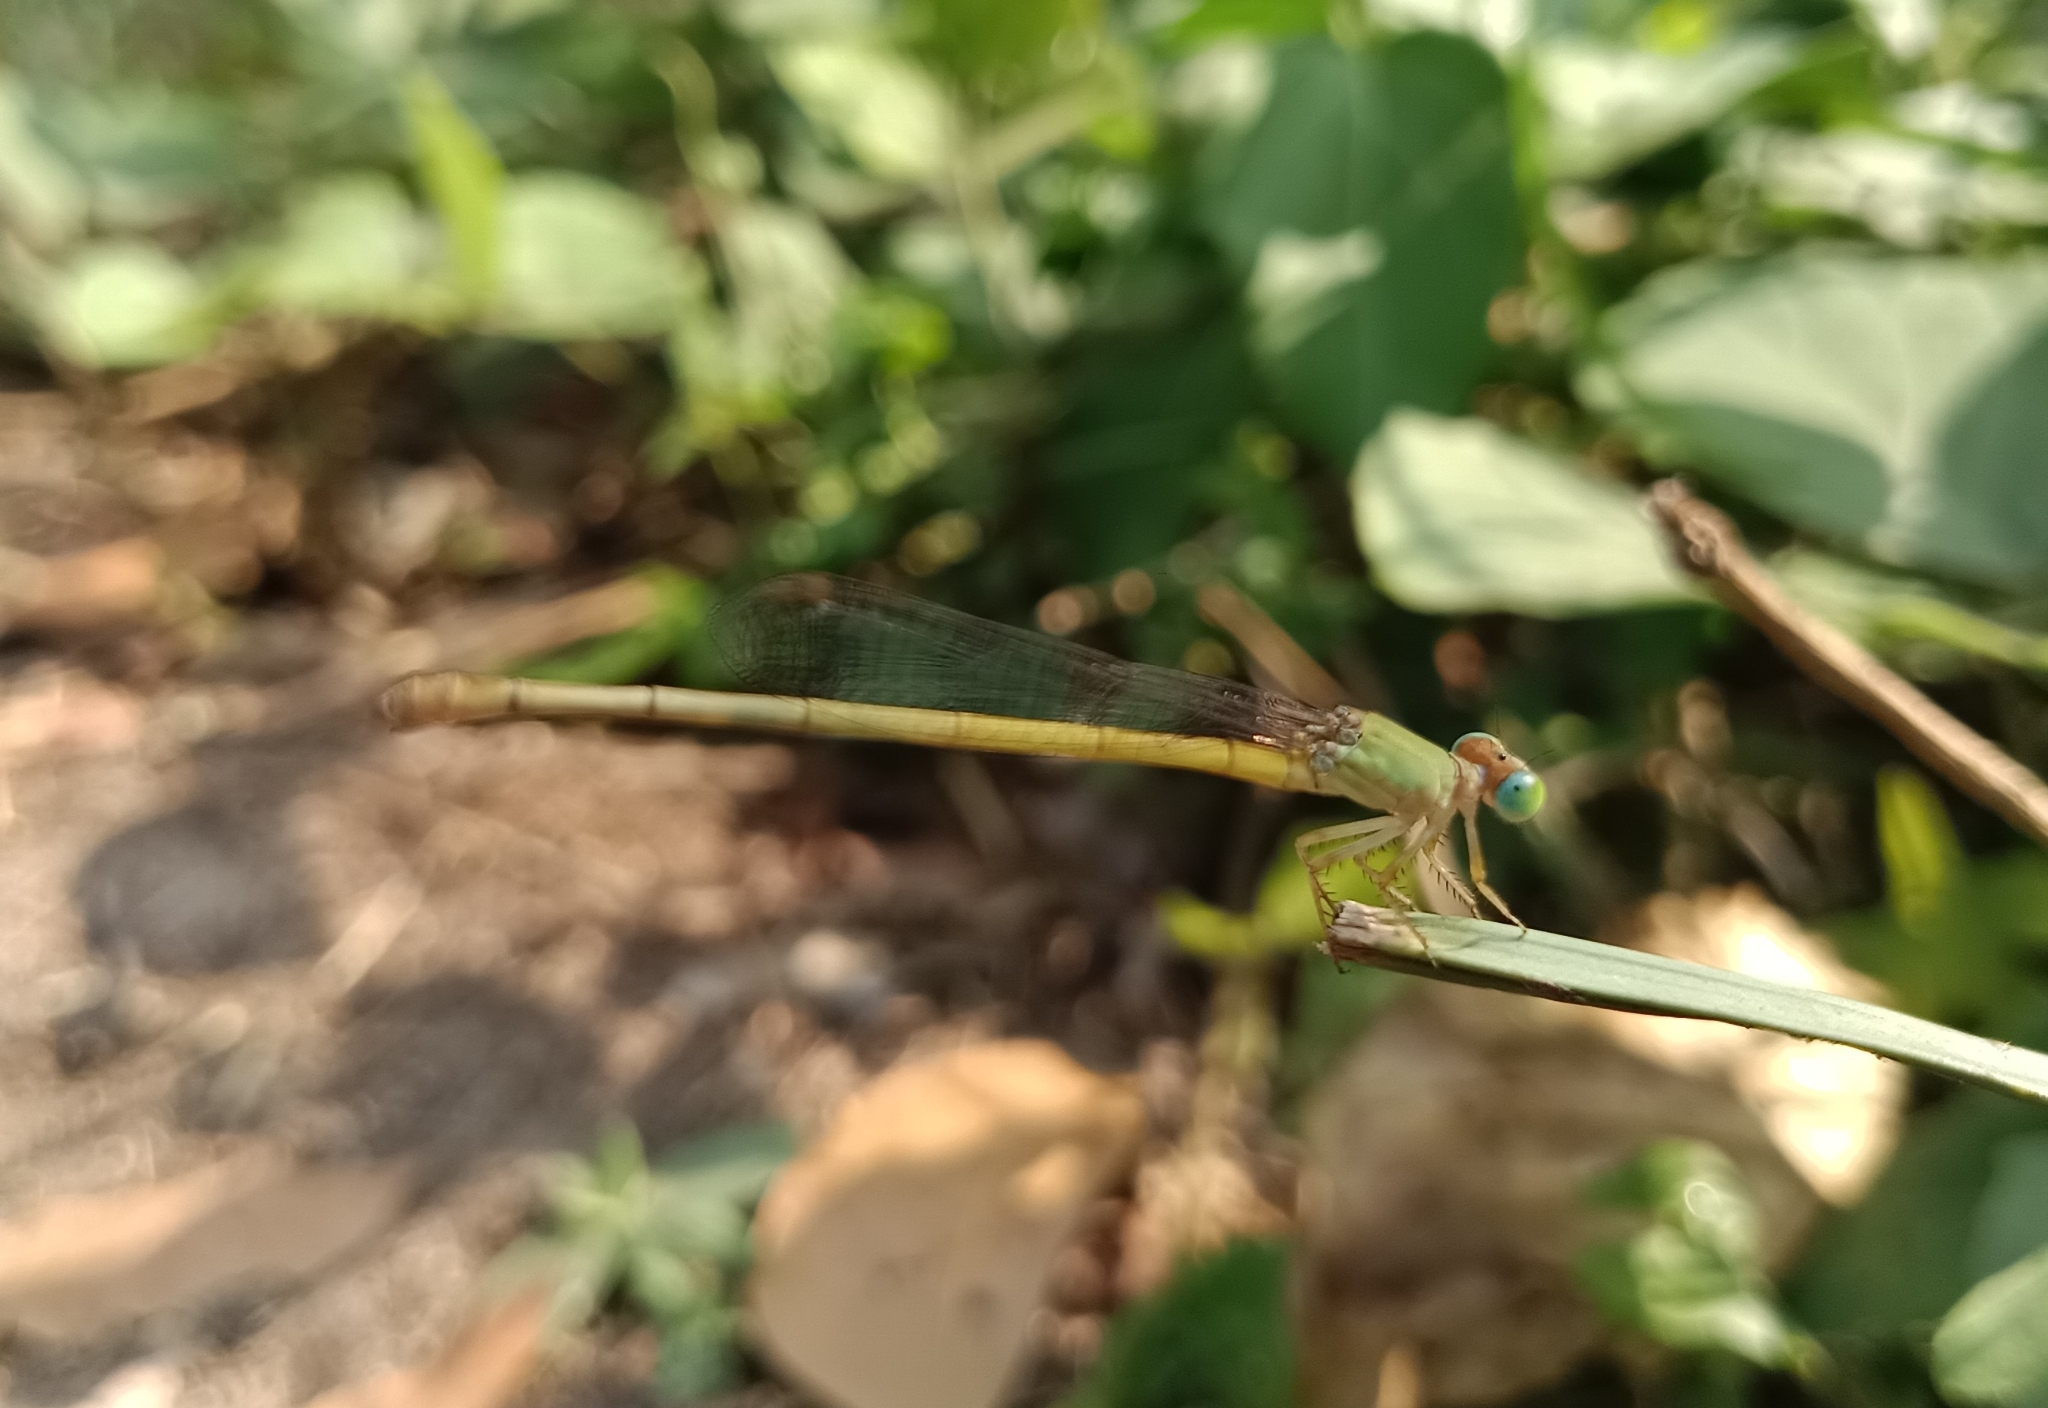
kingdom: Animalia
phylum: Arthropoda
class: Insecta
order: Odonata
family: Coenagrionidae
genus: Ceriagrion
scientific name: Ceriagrion coromandelianum
